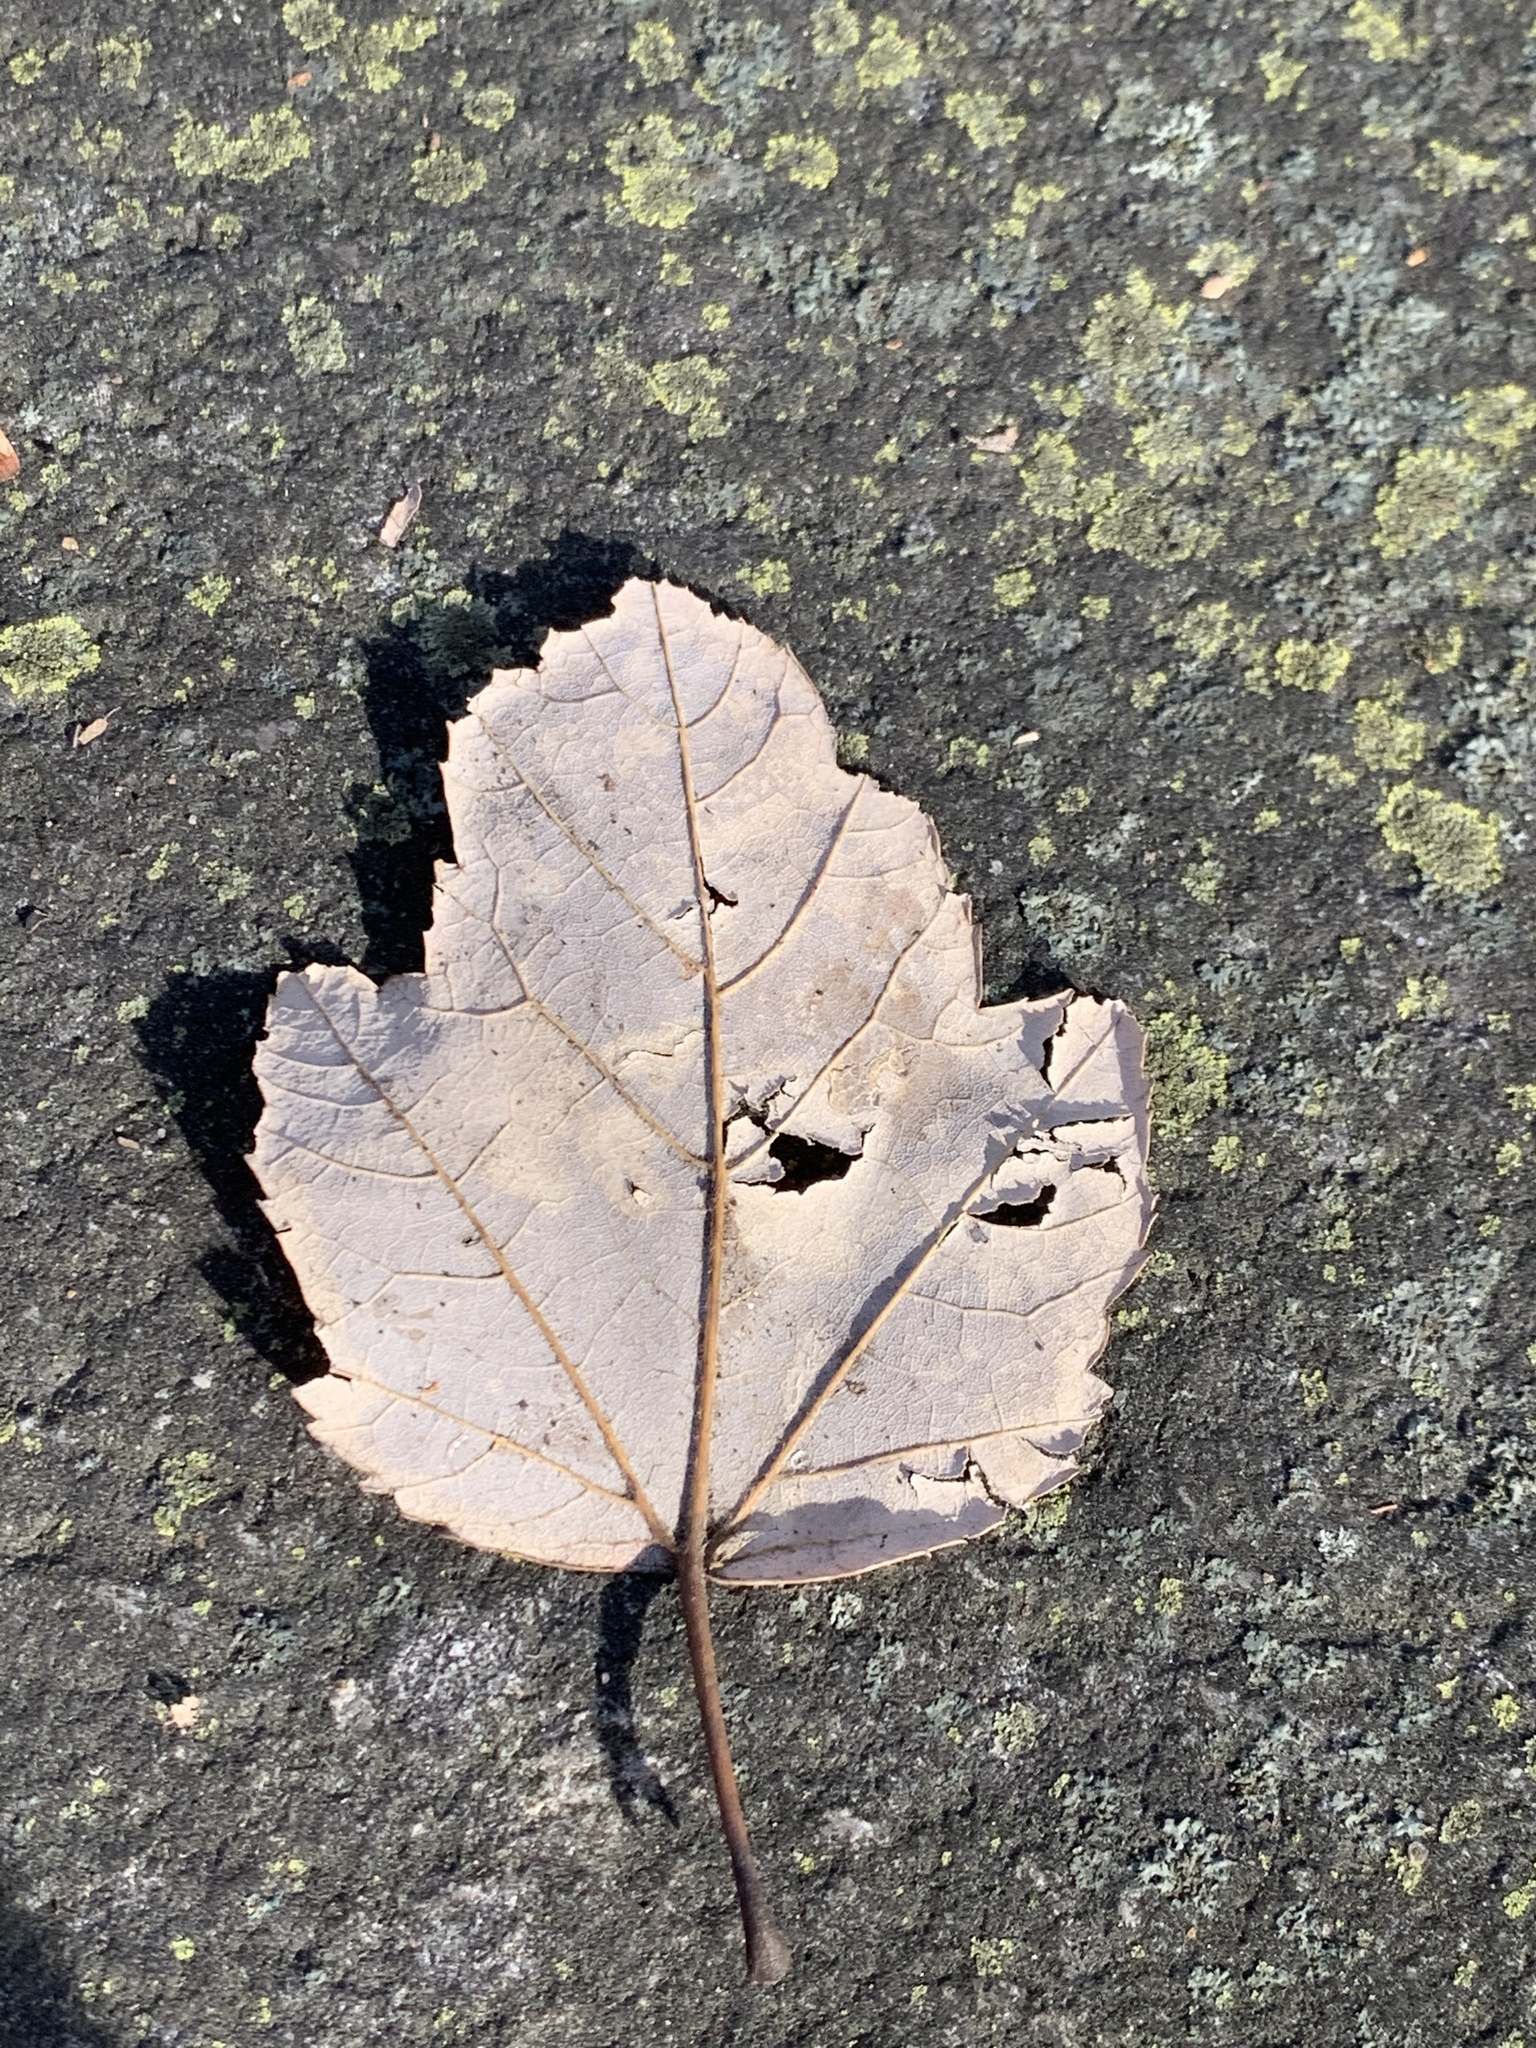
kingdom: Plantae
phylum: Tracheophyta
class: Magnoliopsida
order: Sapindales
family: Sapindaceae
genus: Acer
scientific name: Acer rubrum
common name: Red maple
